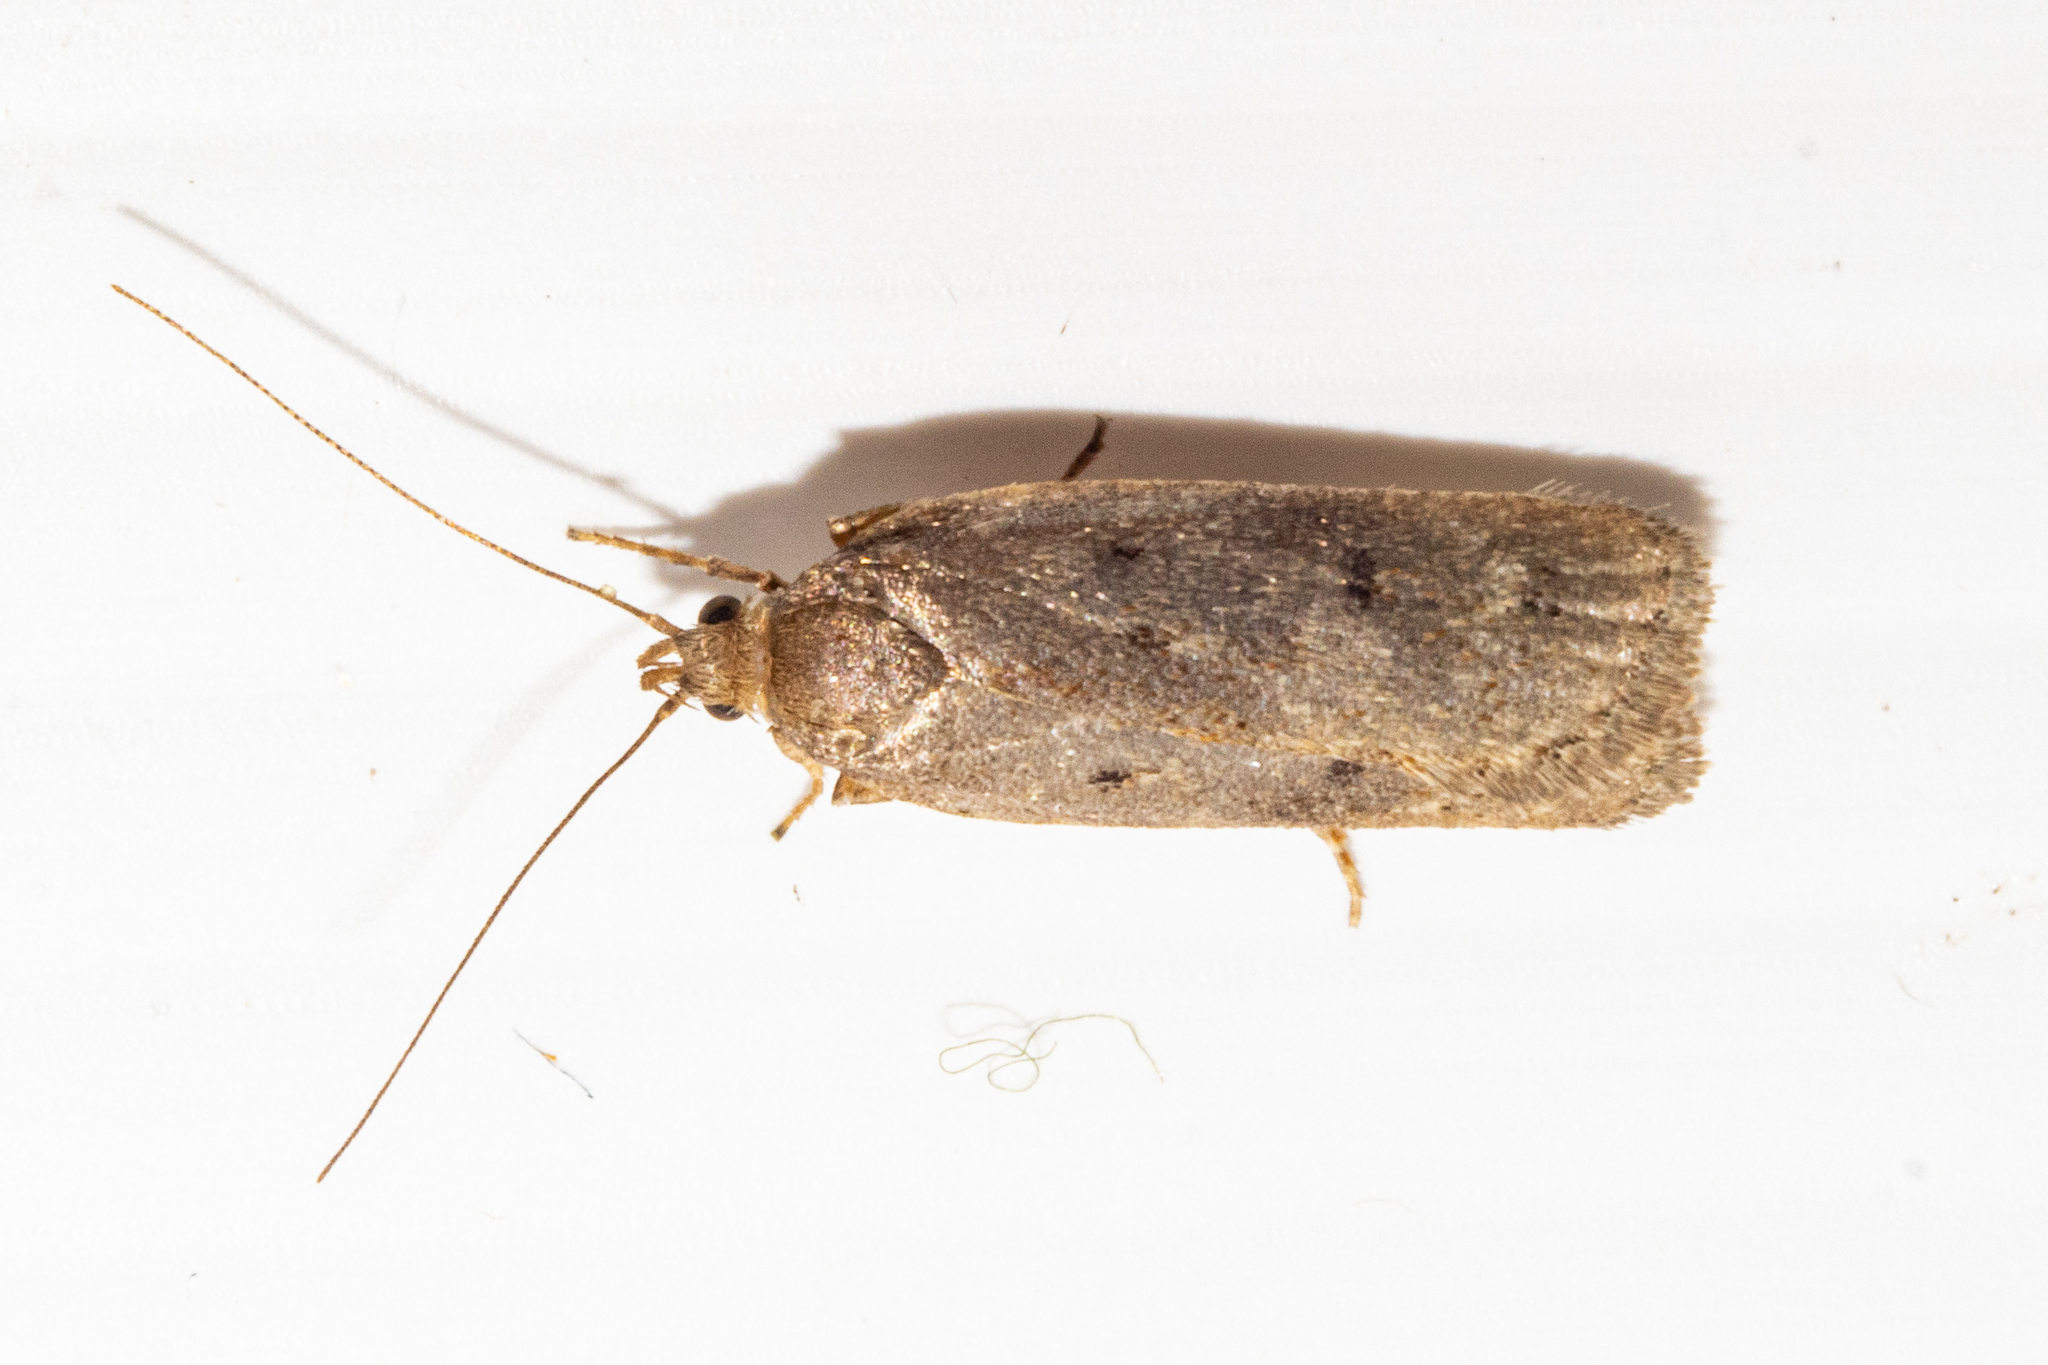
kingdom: Animalia
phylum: Arthropoda
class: Insecta
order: Lepidoptera
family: Depressariidae
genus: Phaeosaces
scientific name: Phaeosaces apocrypta
